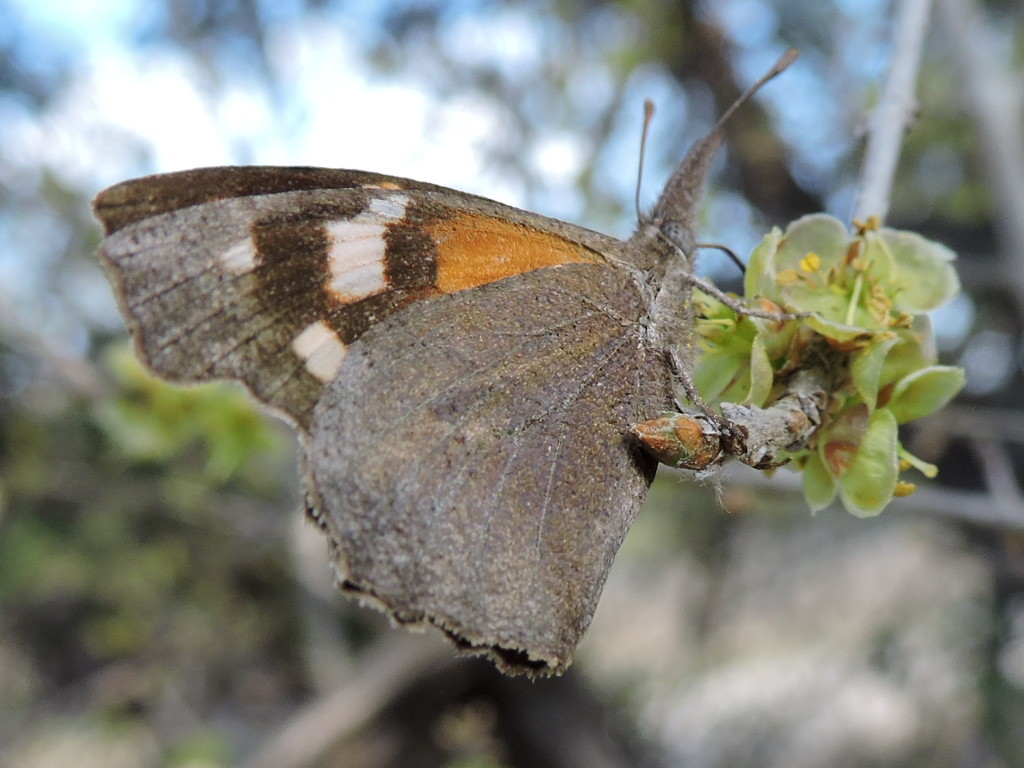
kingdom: Animalia
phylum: Arthropoda
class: Insecta
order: Lepidoptera
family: Nymphalidae
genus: Libytheana
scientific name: Libytheana carinenta
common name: American snout
